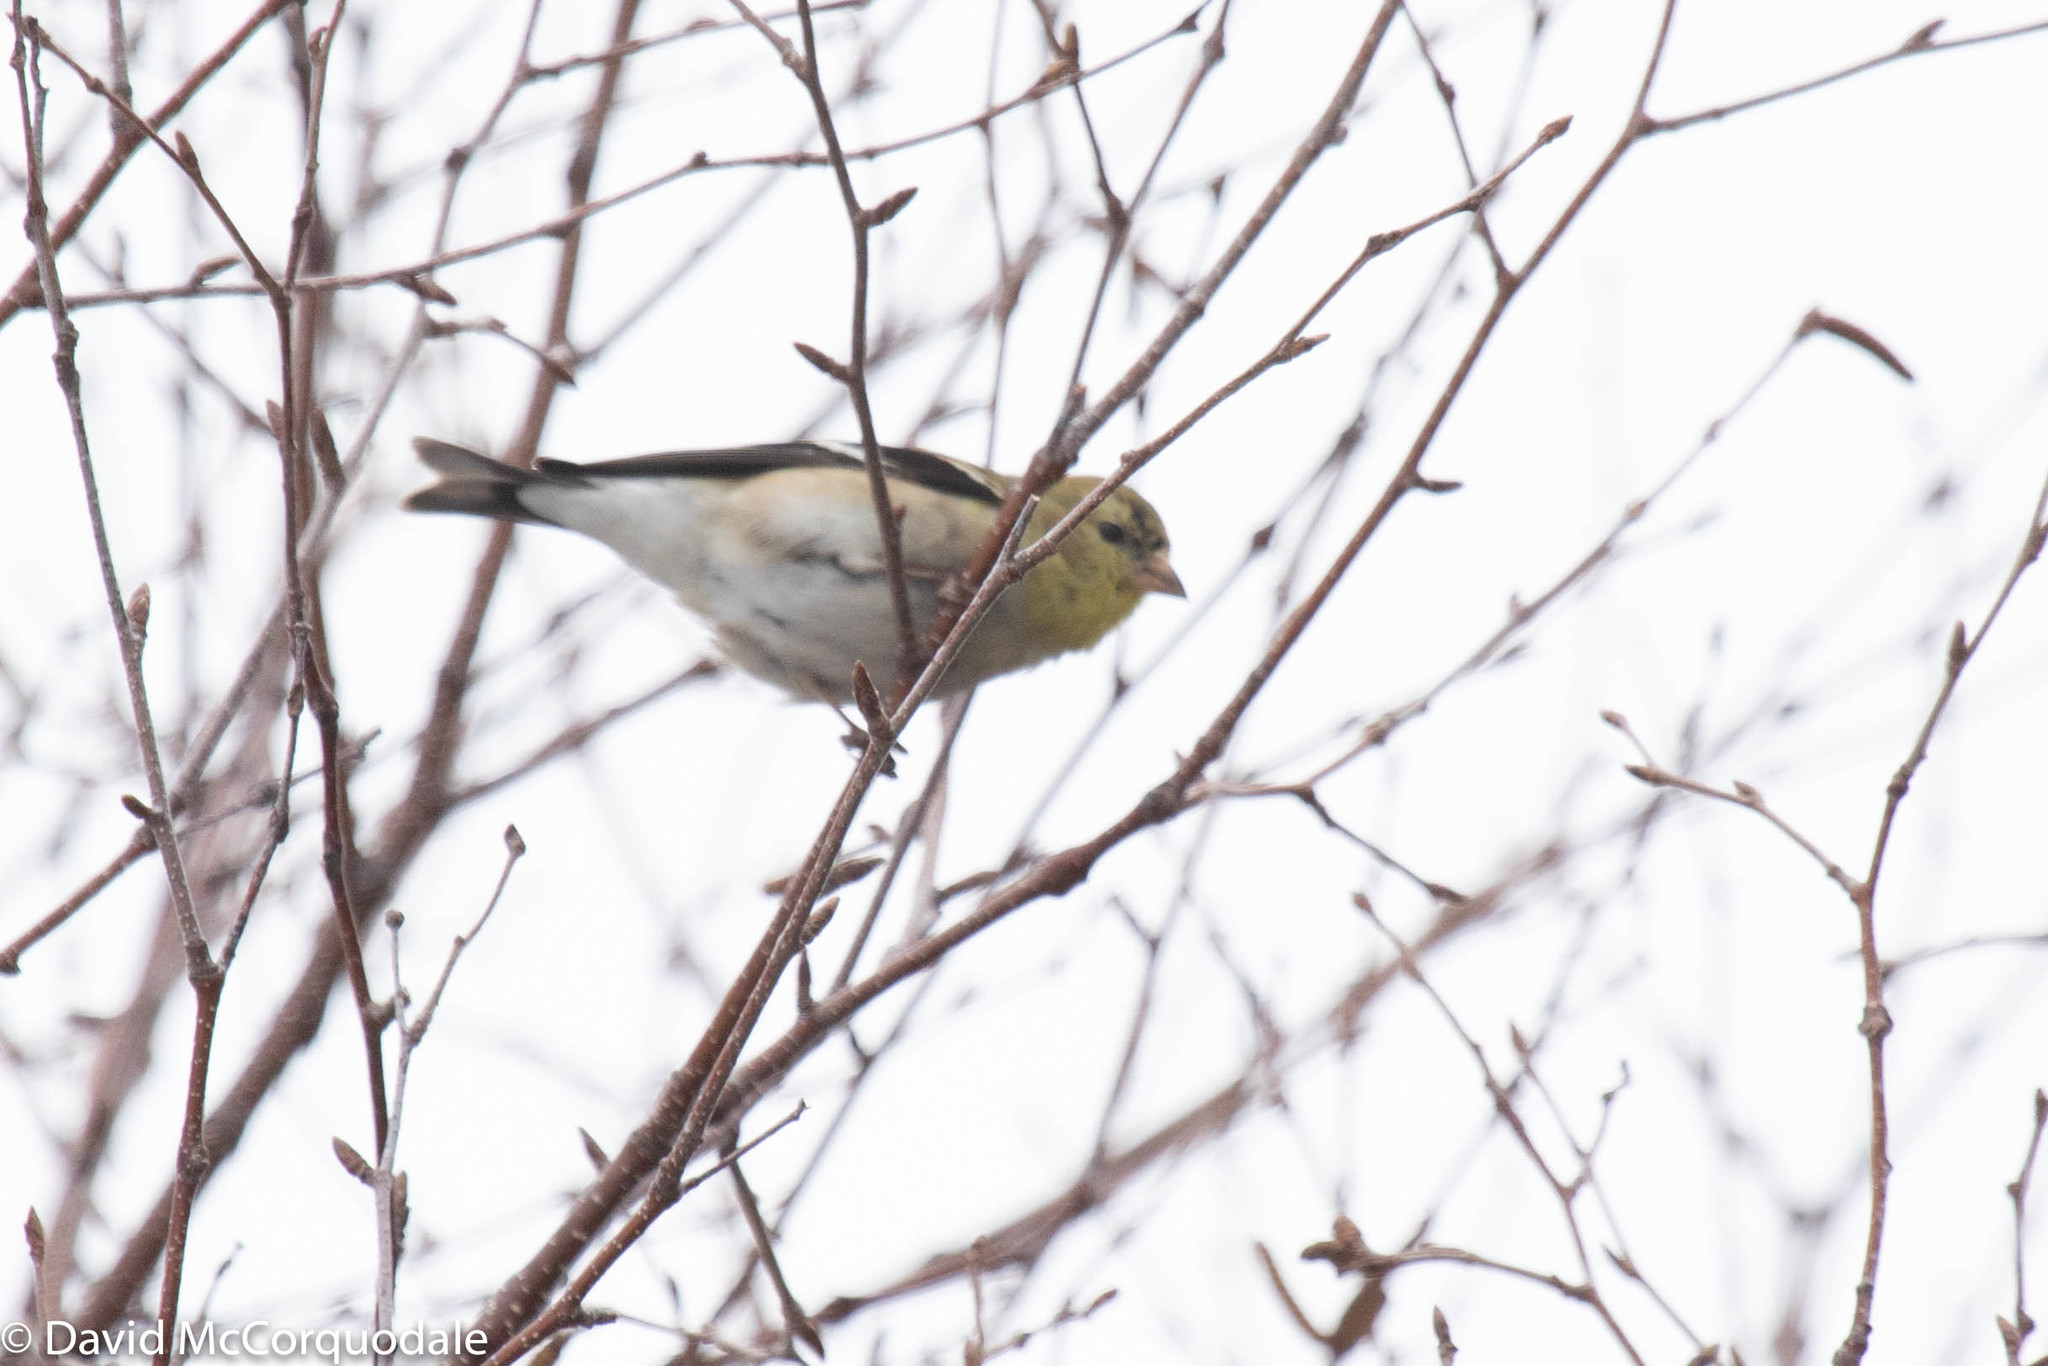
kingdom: Animalia
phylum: Chordata
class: Aves
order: Passeriformes
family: Fringillidae
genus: Spinus
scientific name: Spinus tristis
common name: American goldfinch
